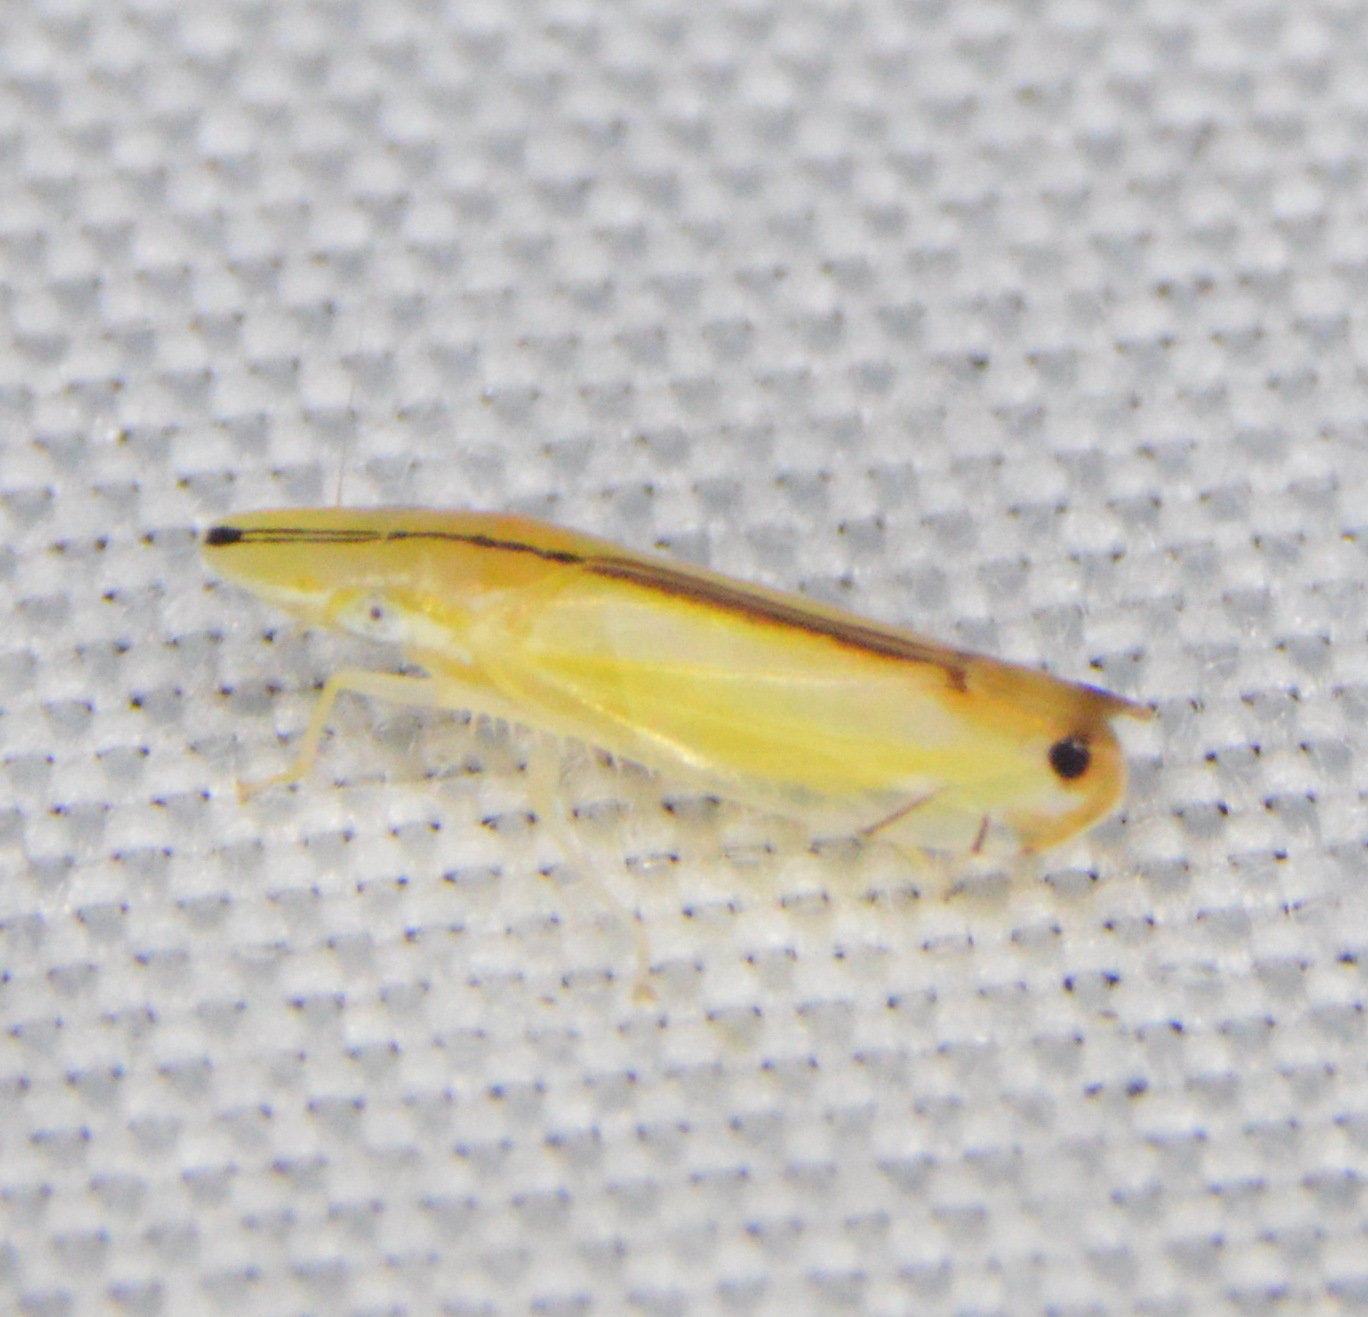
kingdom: Animalia
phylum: Arthropoda
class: Insecta
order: Hemiptera
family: Cicadellidae
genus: Sophonia
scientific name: Sophonia orientalis
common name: Two-spotted leafhopper
